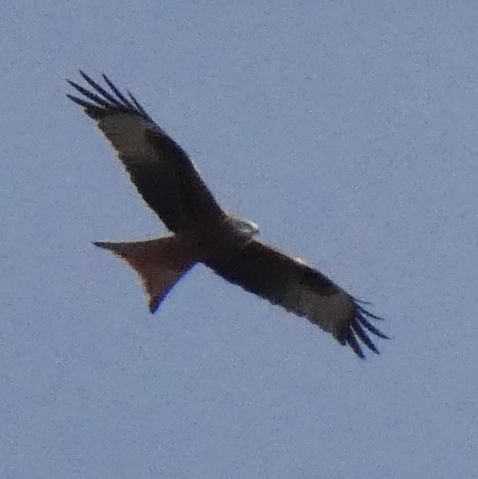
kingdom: Animalia
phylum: Chordata
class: Aves
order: Accipitriformes
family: Accipitridae
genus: Milvus
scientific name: Milvus milvus
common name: Red kite
